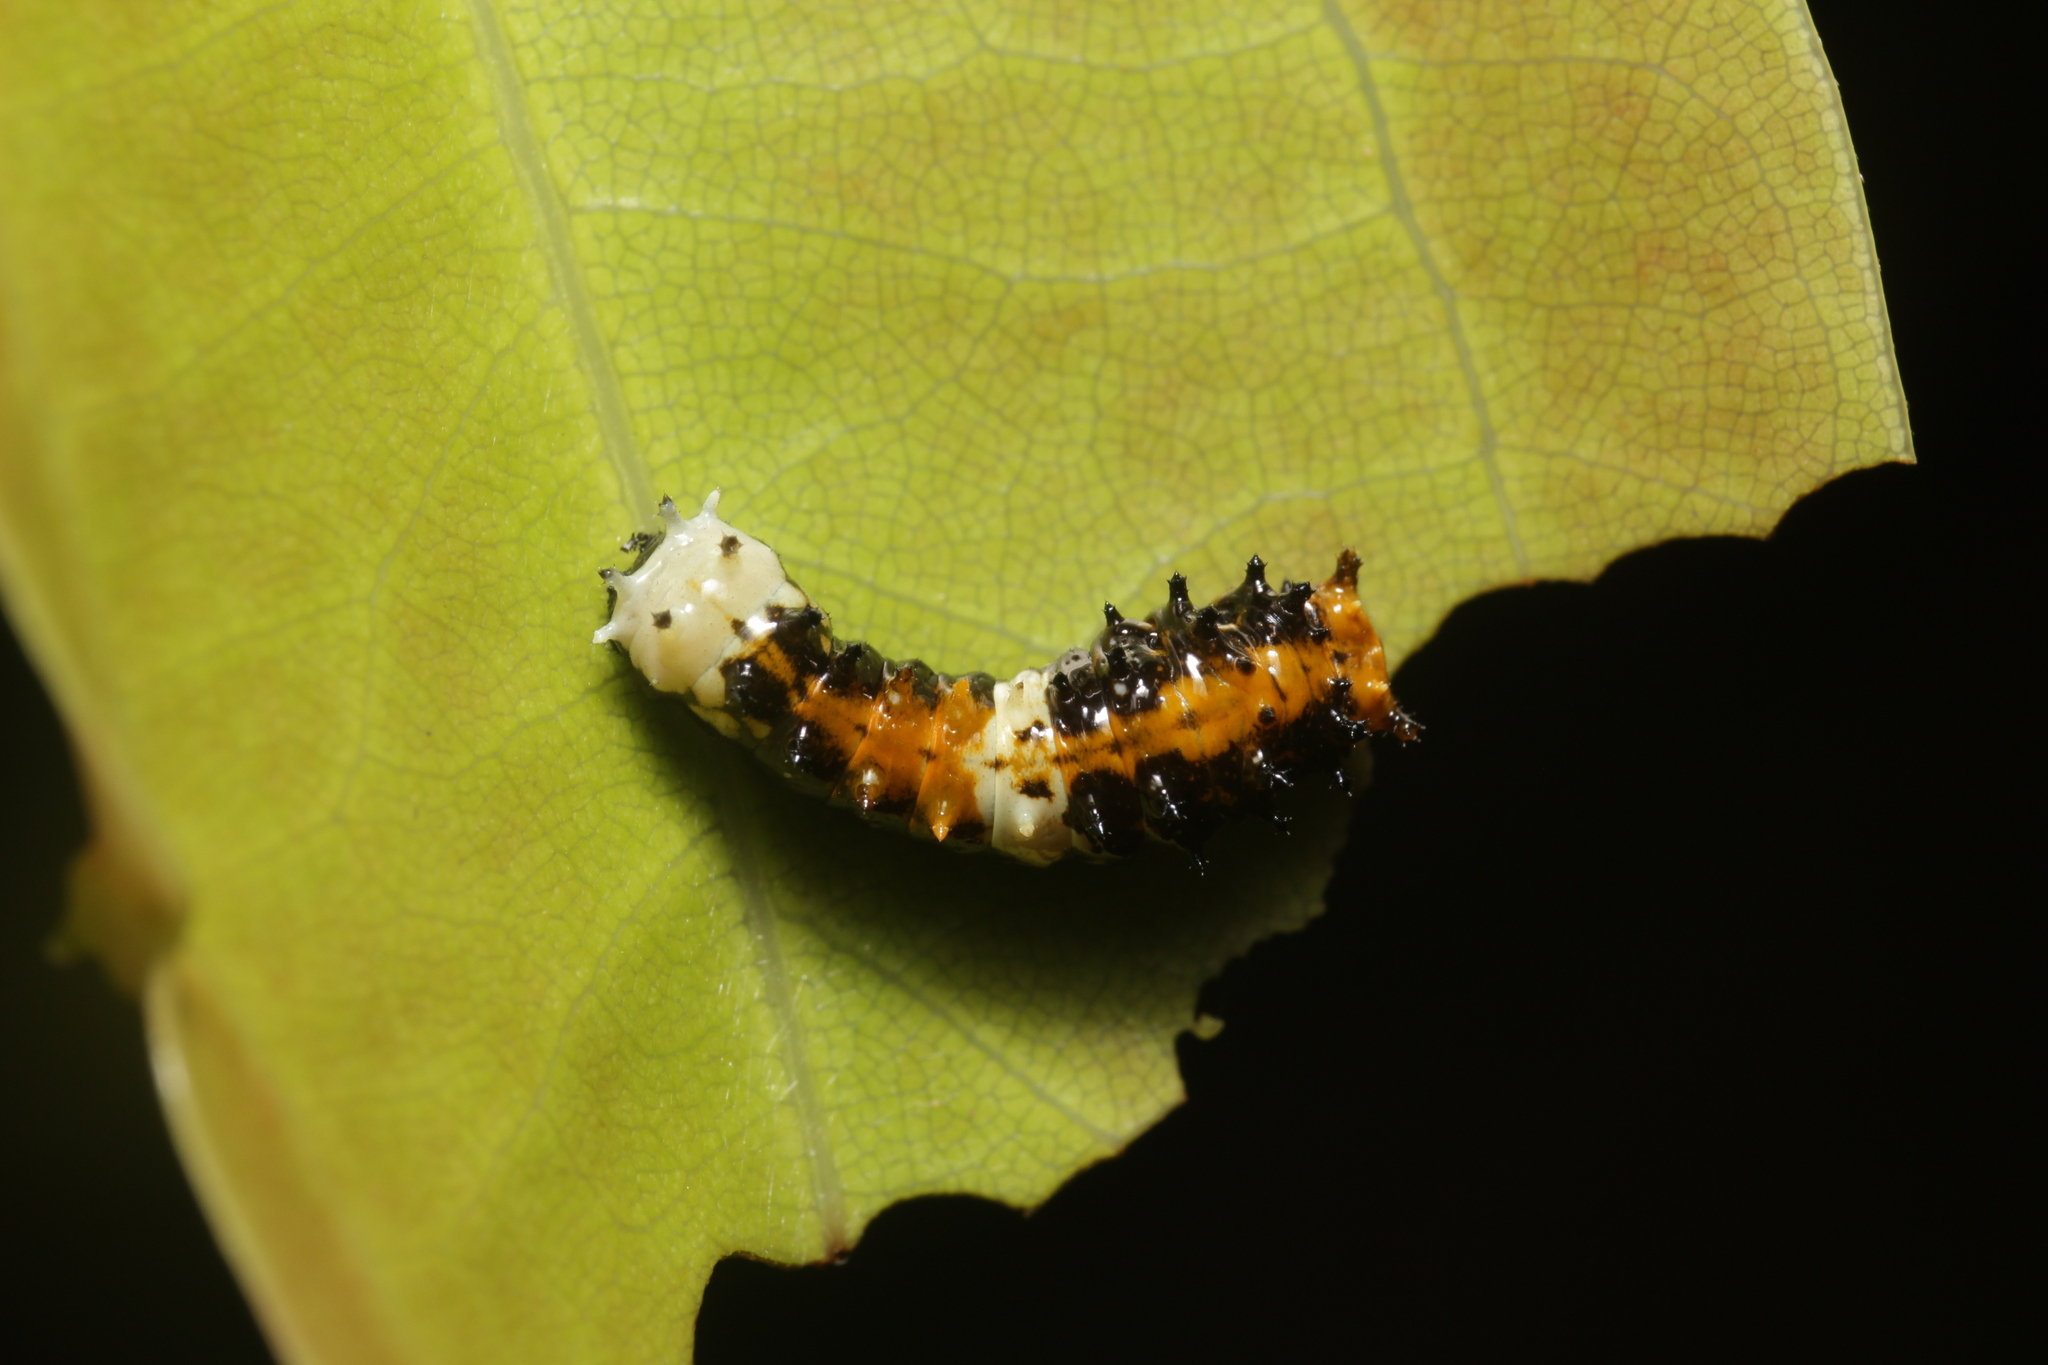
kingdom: Animalia
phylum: Arthropoda
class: Insecta
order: Lepidoptera
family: Papilionidae
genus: Chilasa
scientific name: Chilasa clytia
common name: Common mime
